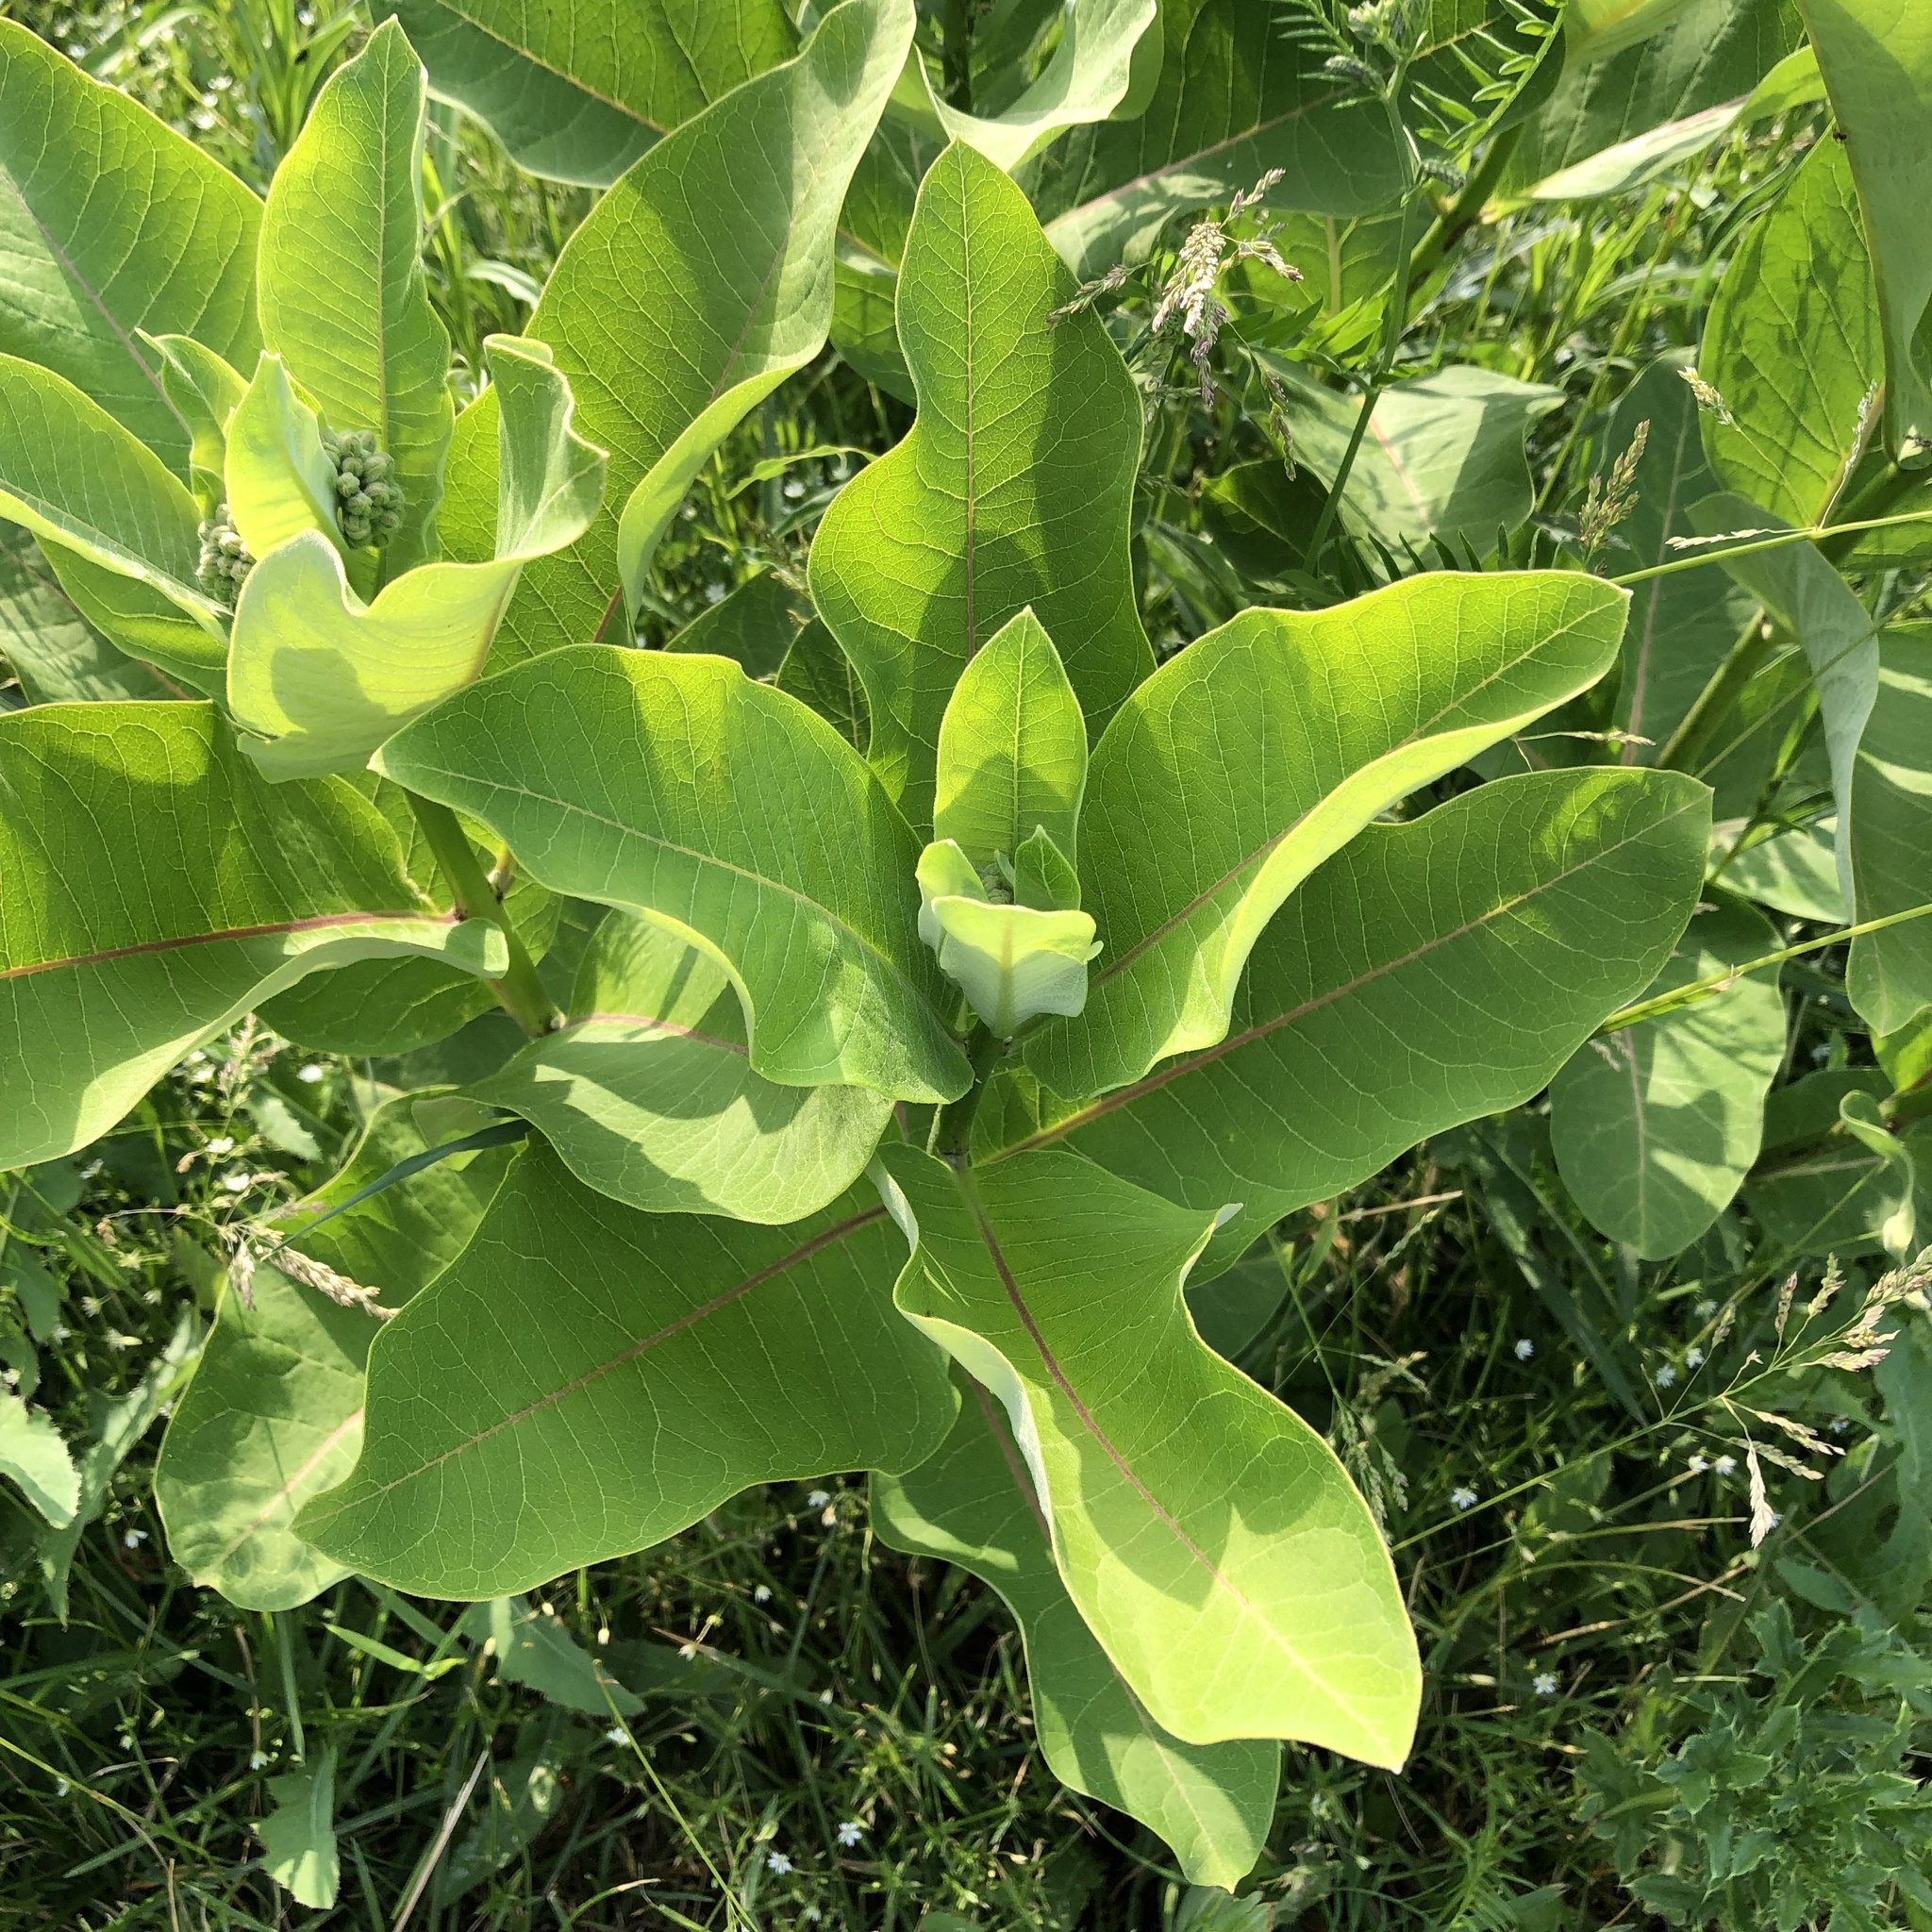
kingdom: Plantae
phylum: Tracheophyta
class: Magnoliopsida
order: Gentianales
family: Apocynaceae
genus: Asclepias
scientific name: Asclepias syriaca
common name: Common milkweed
